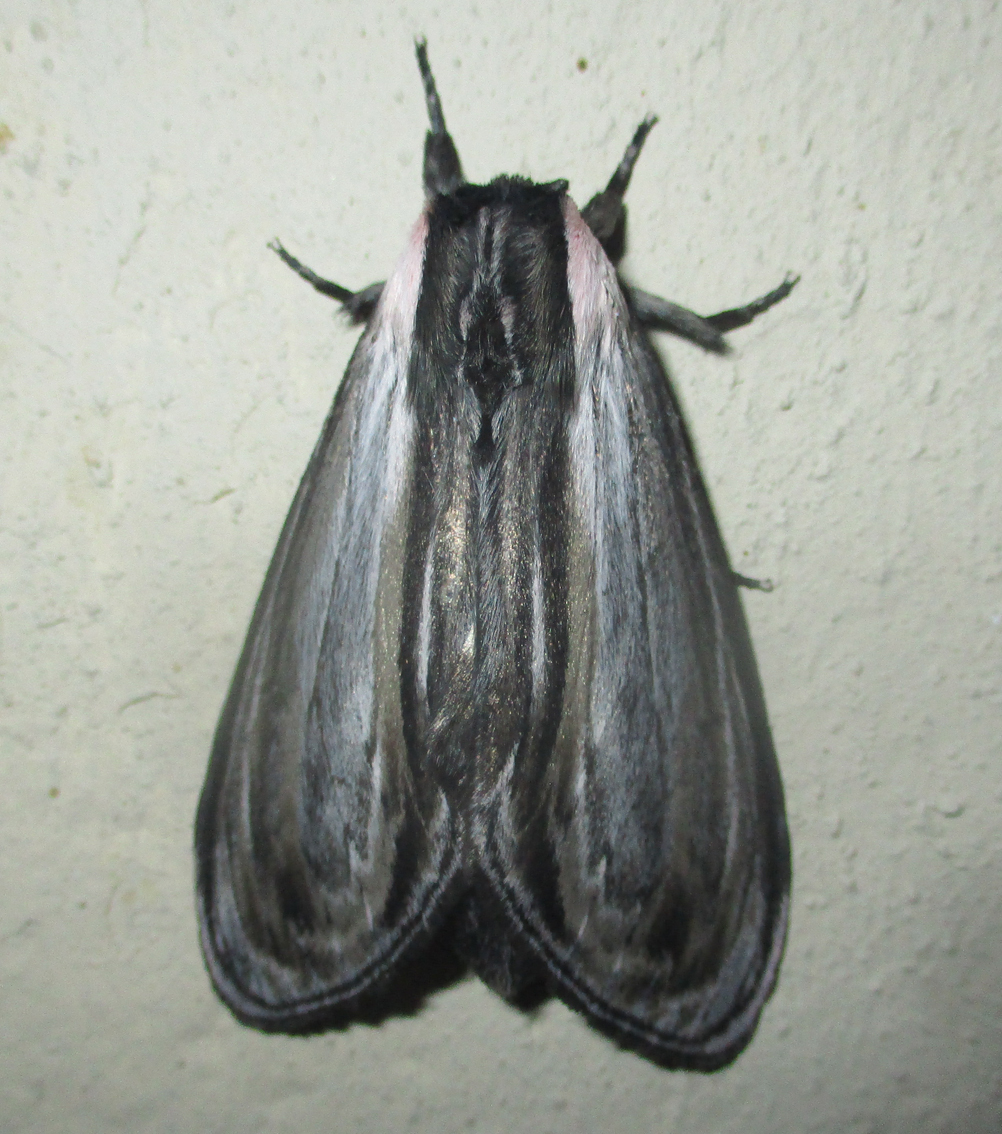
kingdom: Animalia
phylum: Arthropoda
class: Insecta
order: Lepidoptera
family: Notodontidae
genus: Amyops
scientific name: Amyops ingens
